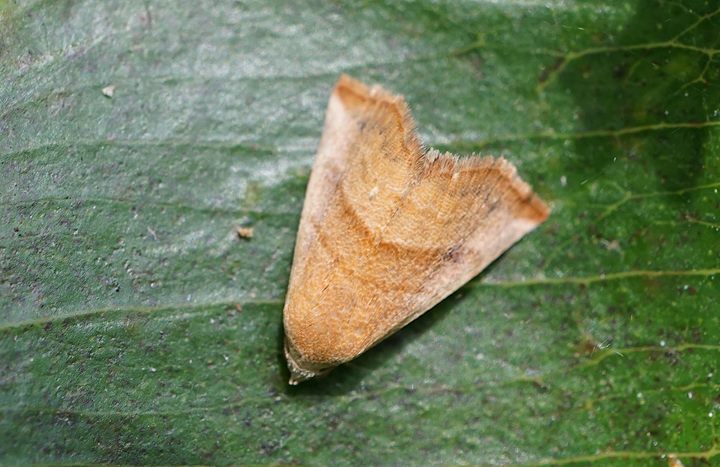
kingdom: Animalia
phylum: Arthropoda
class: Insecta
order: Lepidoptera
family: Noctuidae
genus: Eublemma
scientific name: Eublemma cinnamomea
